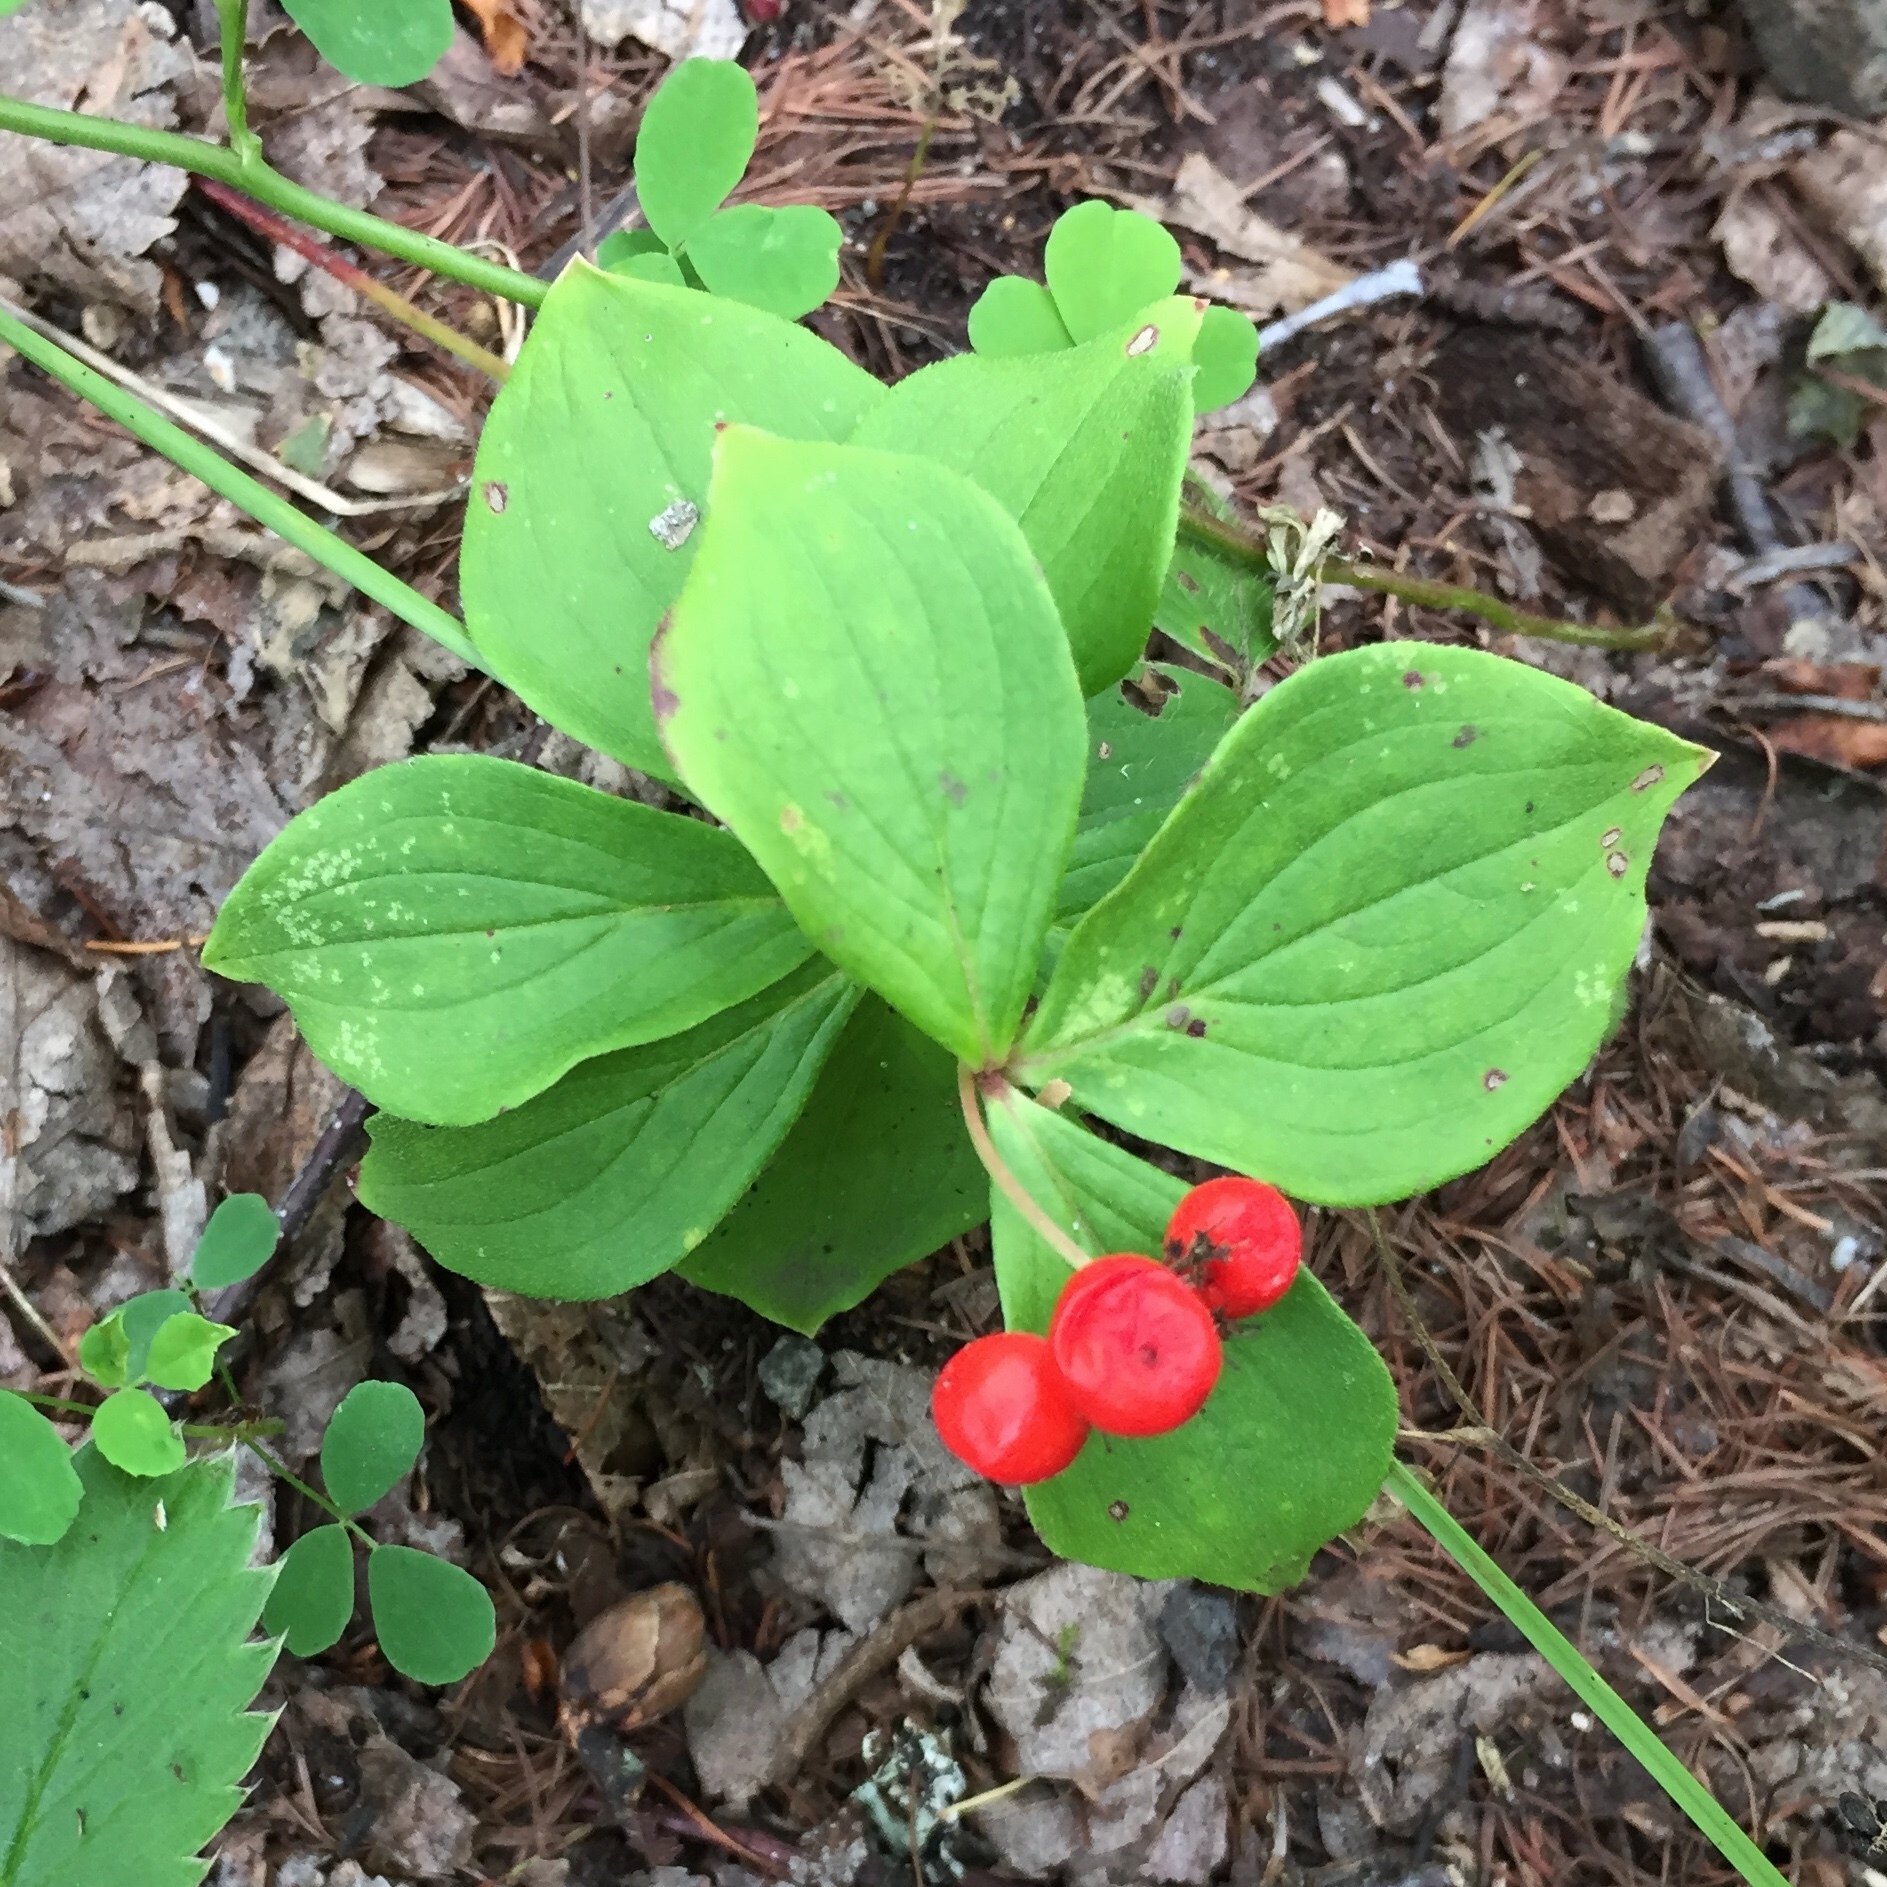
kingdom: Plantae
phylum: Tracheophyta
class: Magnoliopsida
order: Cornales
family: Cornaceae
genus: Cornus
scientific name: Cornus canadensis
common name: Creeping dogwood
